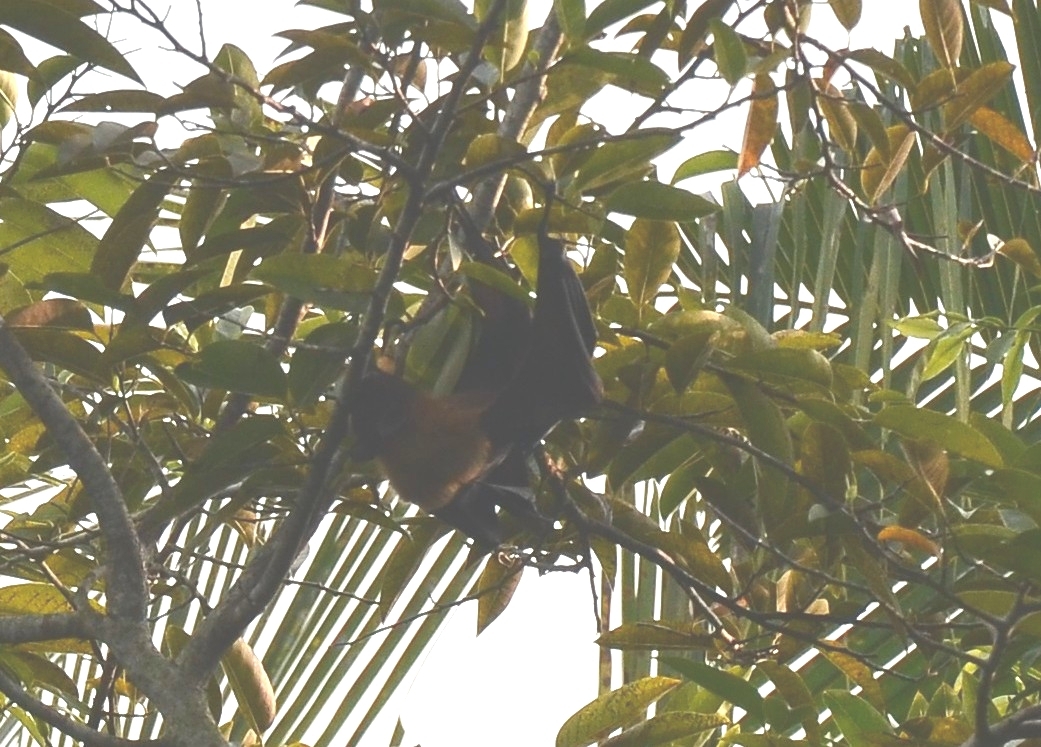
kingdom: Animalia
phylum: Chordata
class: Mammalia
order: Chiroptera
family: Pteropodidae
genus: Pteropus
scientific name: Pteropus vampyrus
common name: Large flying fox
